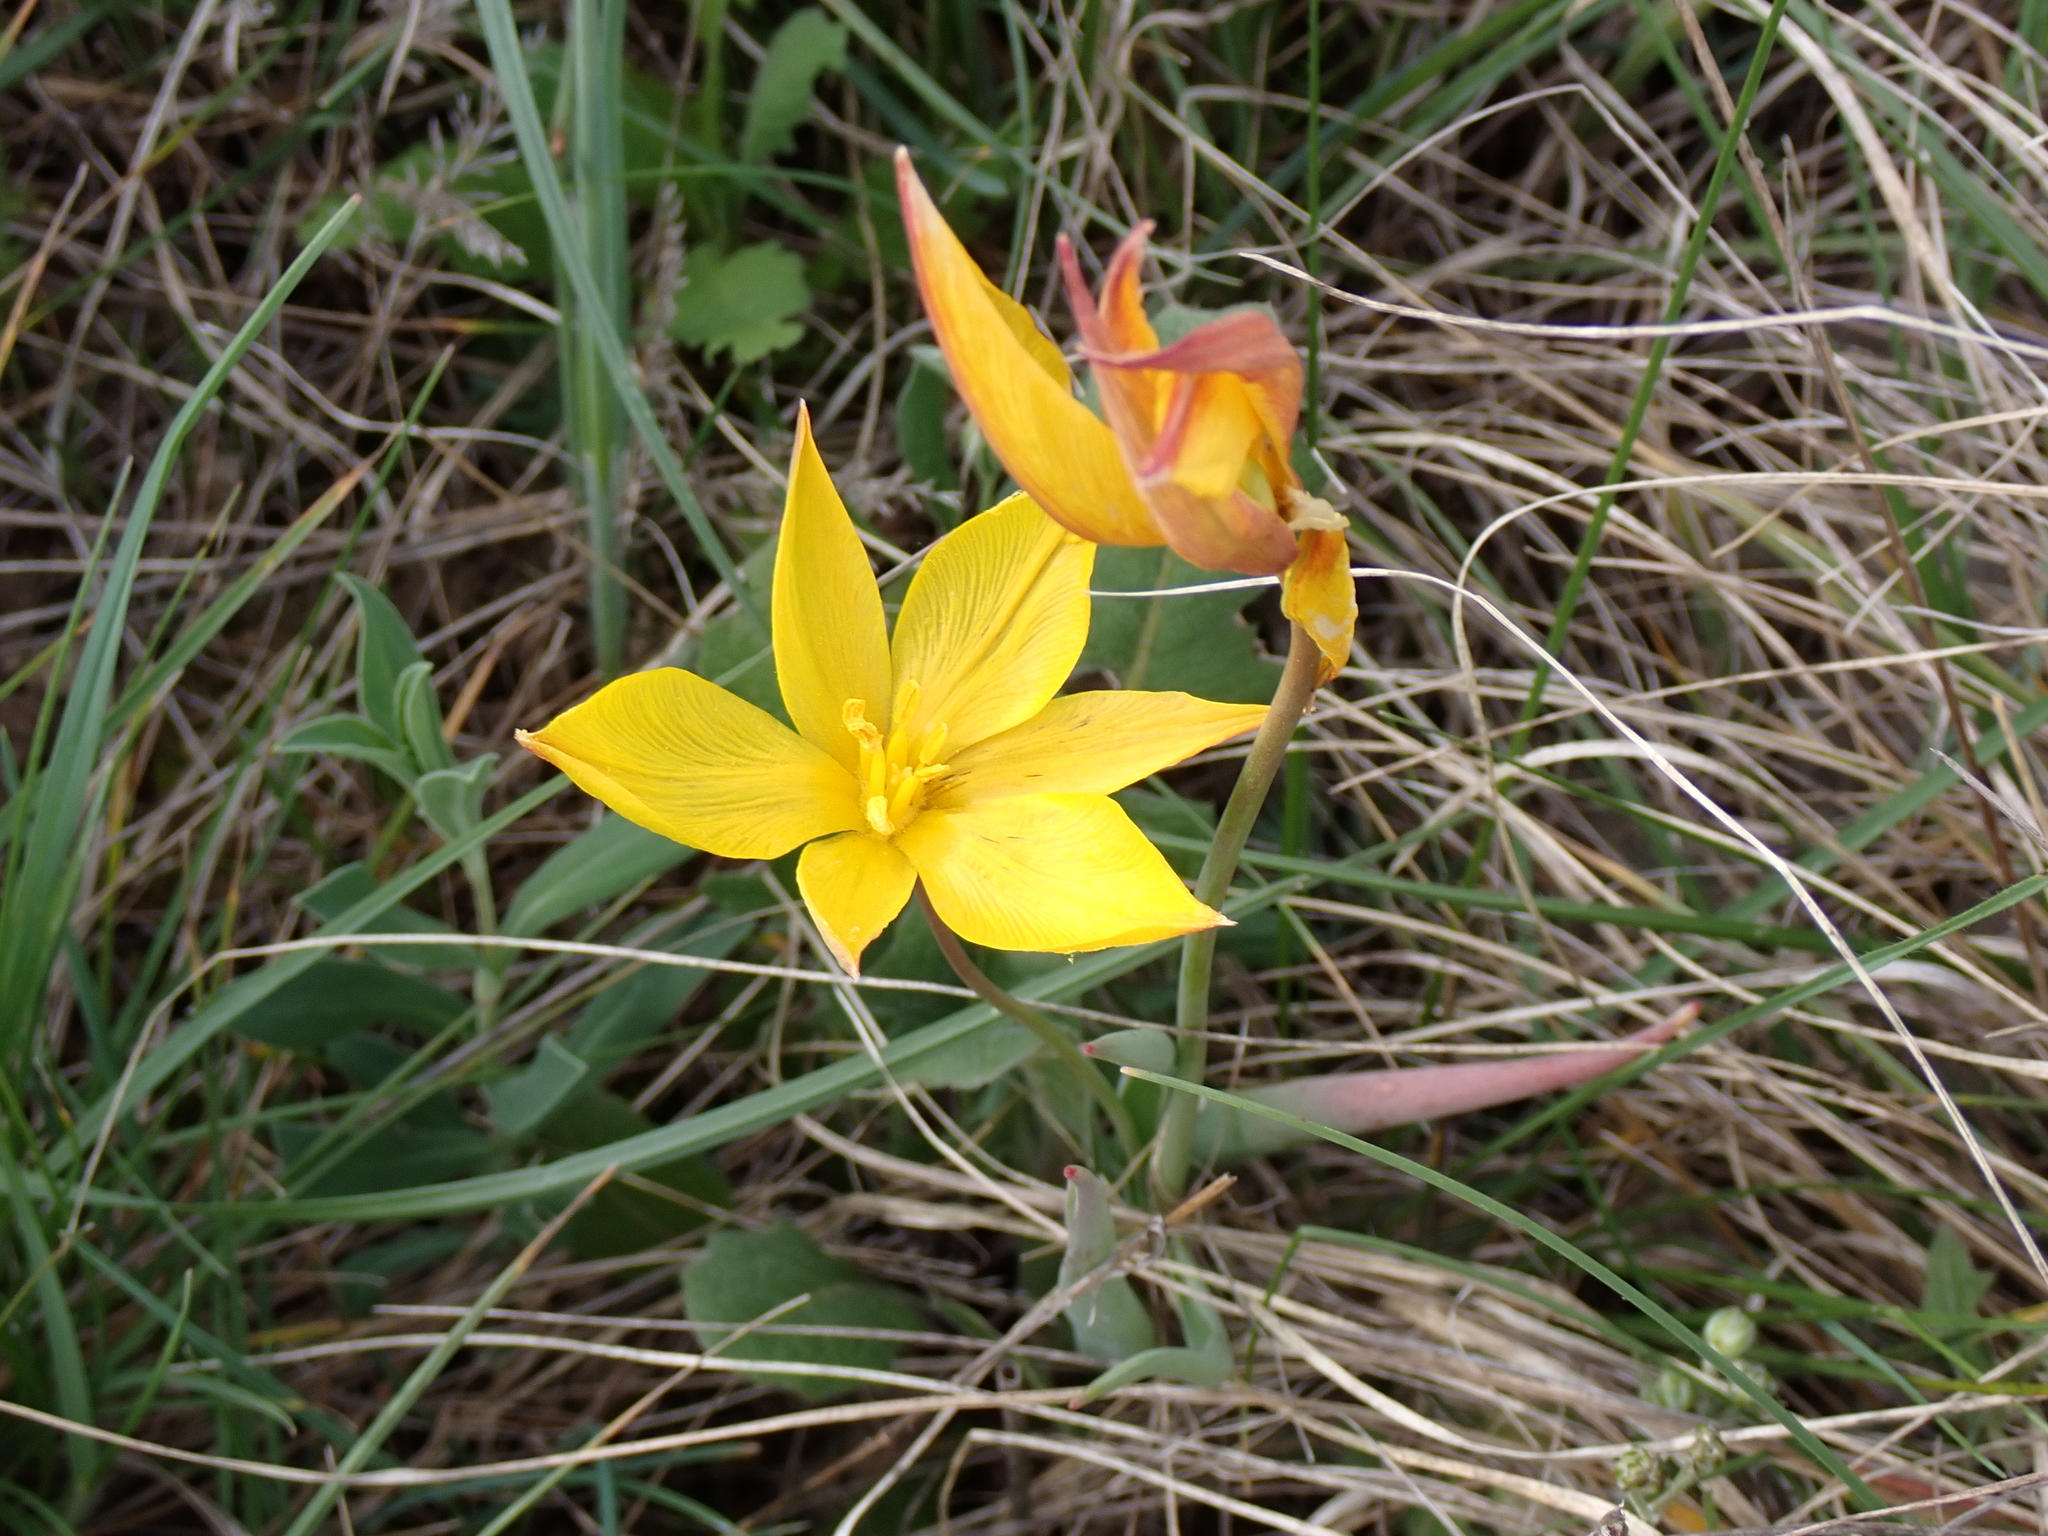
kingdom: Plantae
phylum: Tracheophyta
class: Liliopsida
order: Liliales
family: Liliaceae
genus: Tulipa
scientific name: Tulipa sylvestris
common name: Wild tulip
